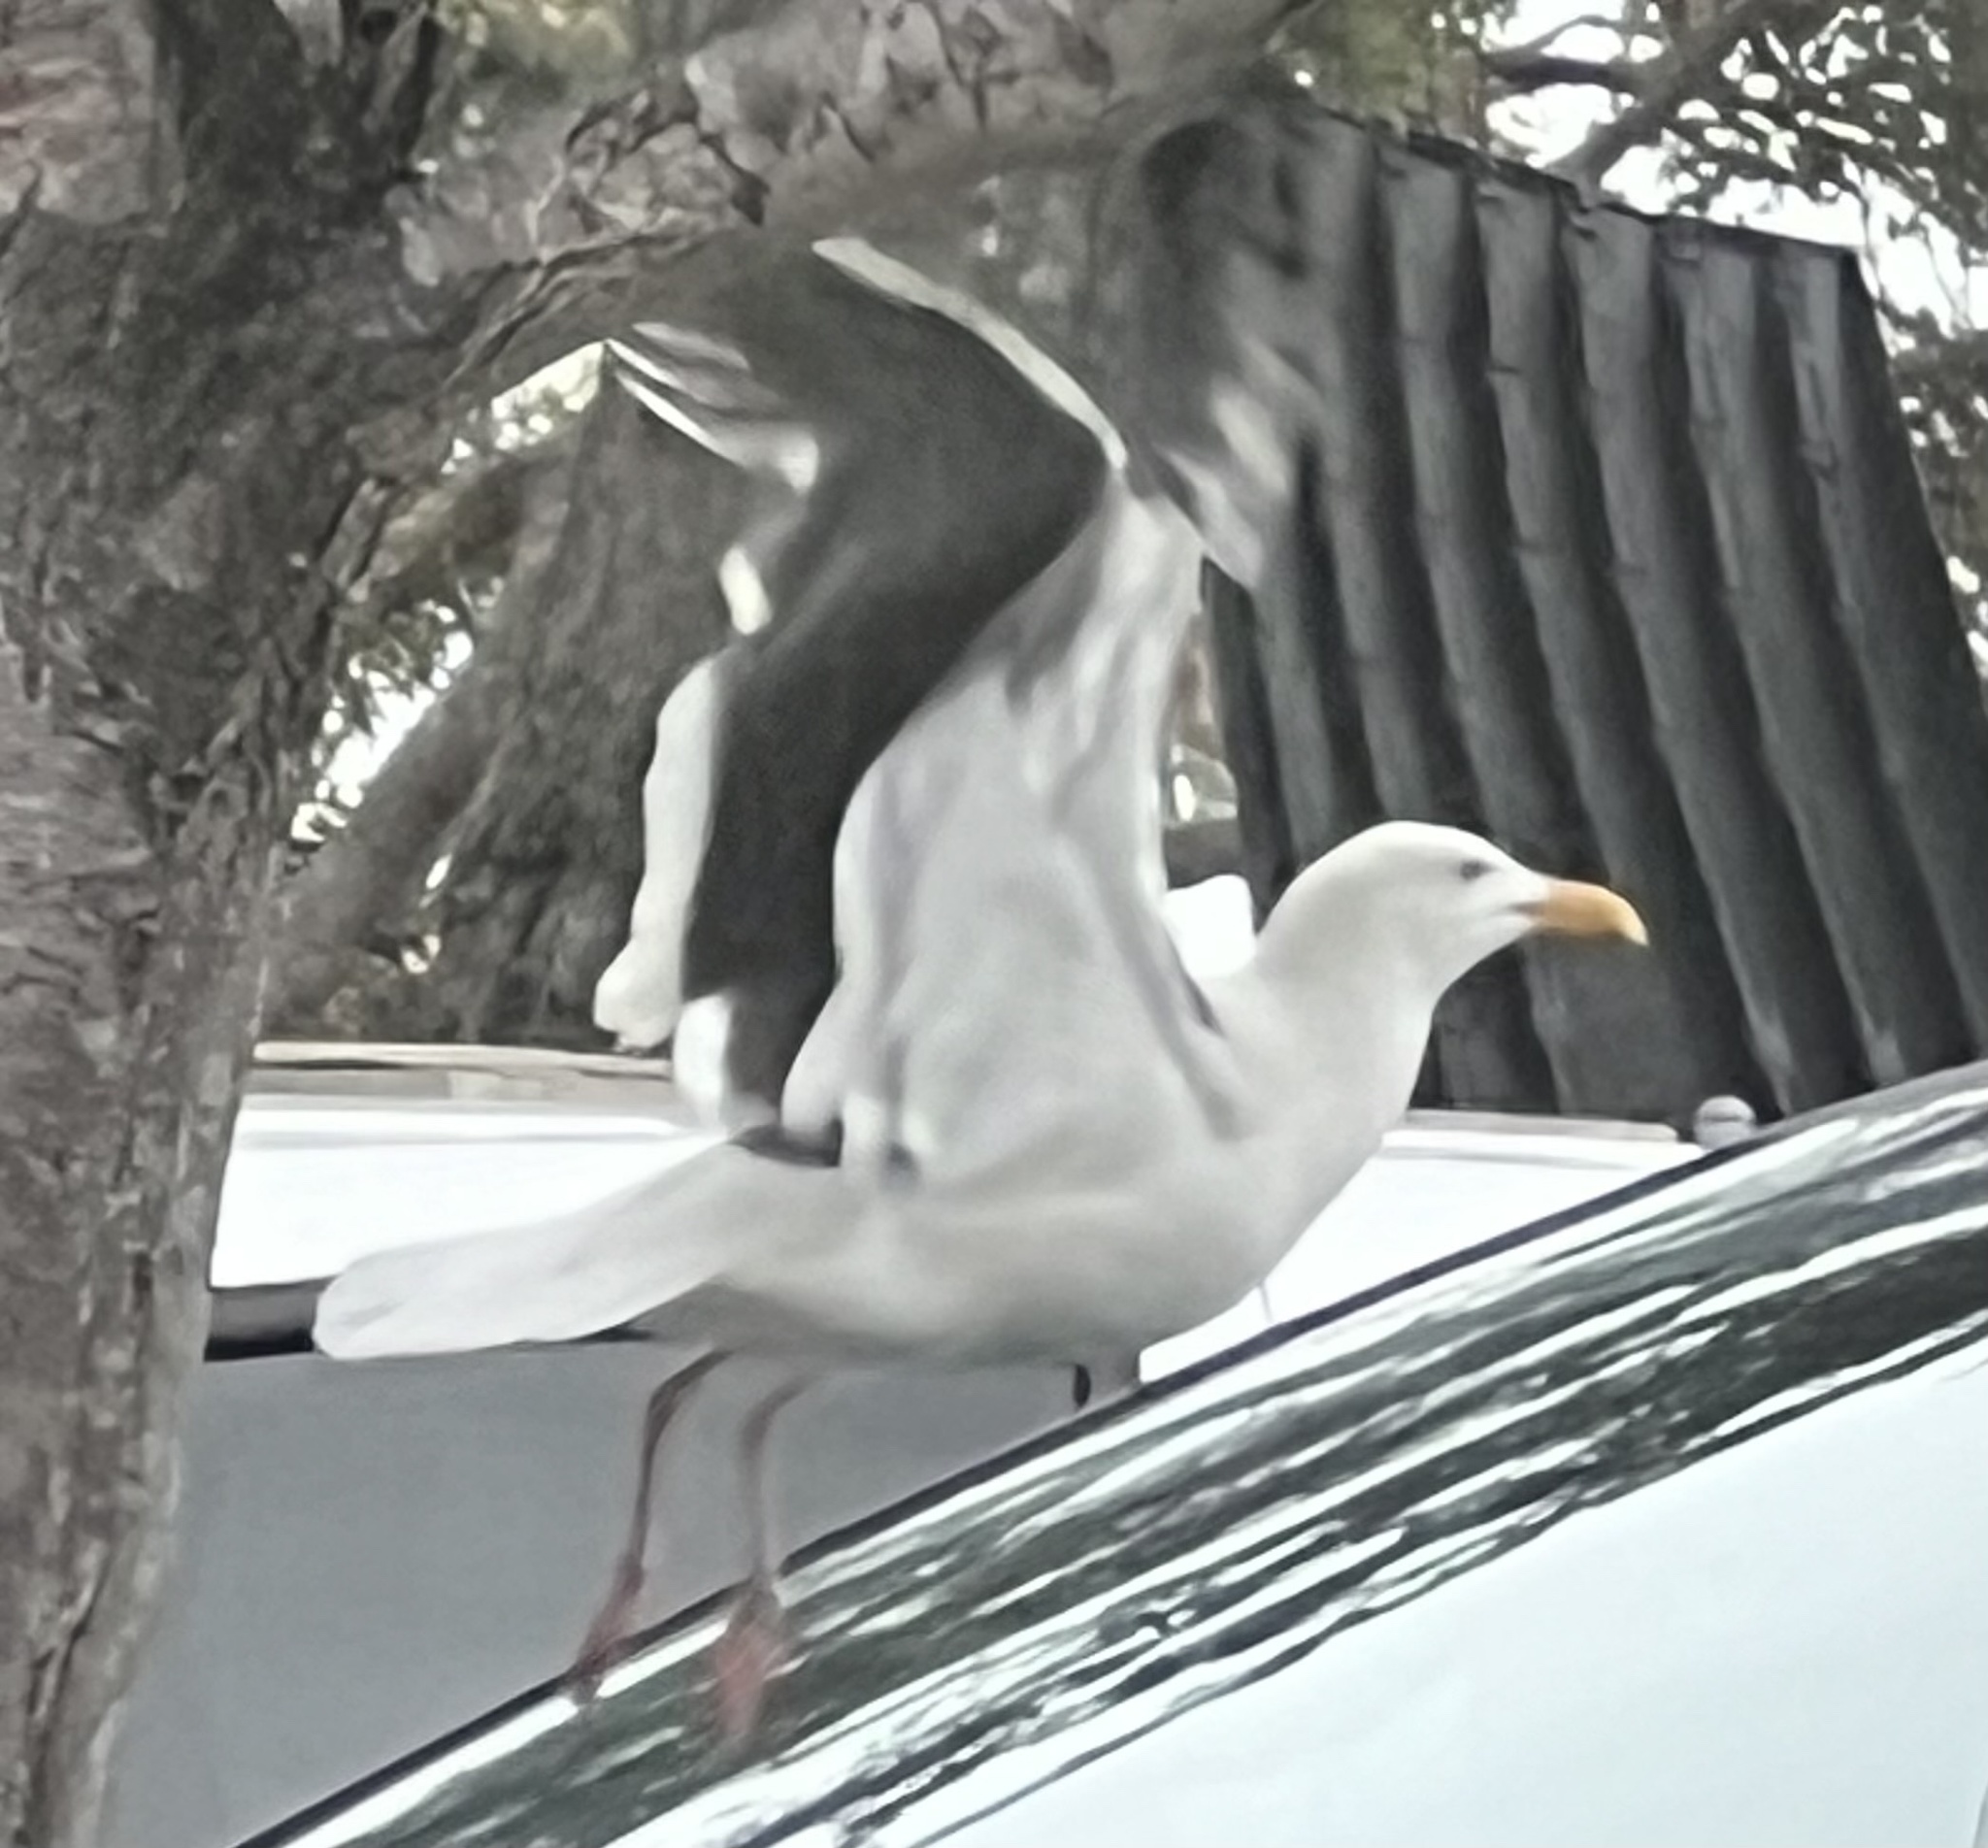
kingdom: Animalia
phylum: Chordata
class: Aves
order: Charadriiformes
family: Laridae
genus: Larus
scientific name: Larus occidentalis
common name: Western gull
